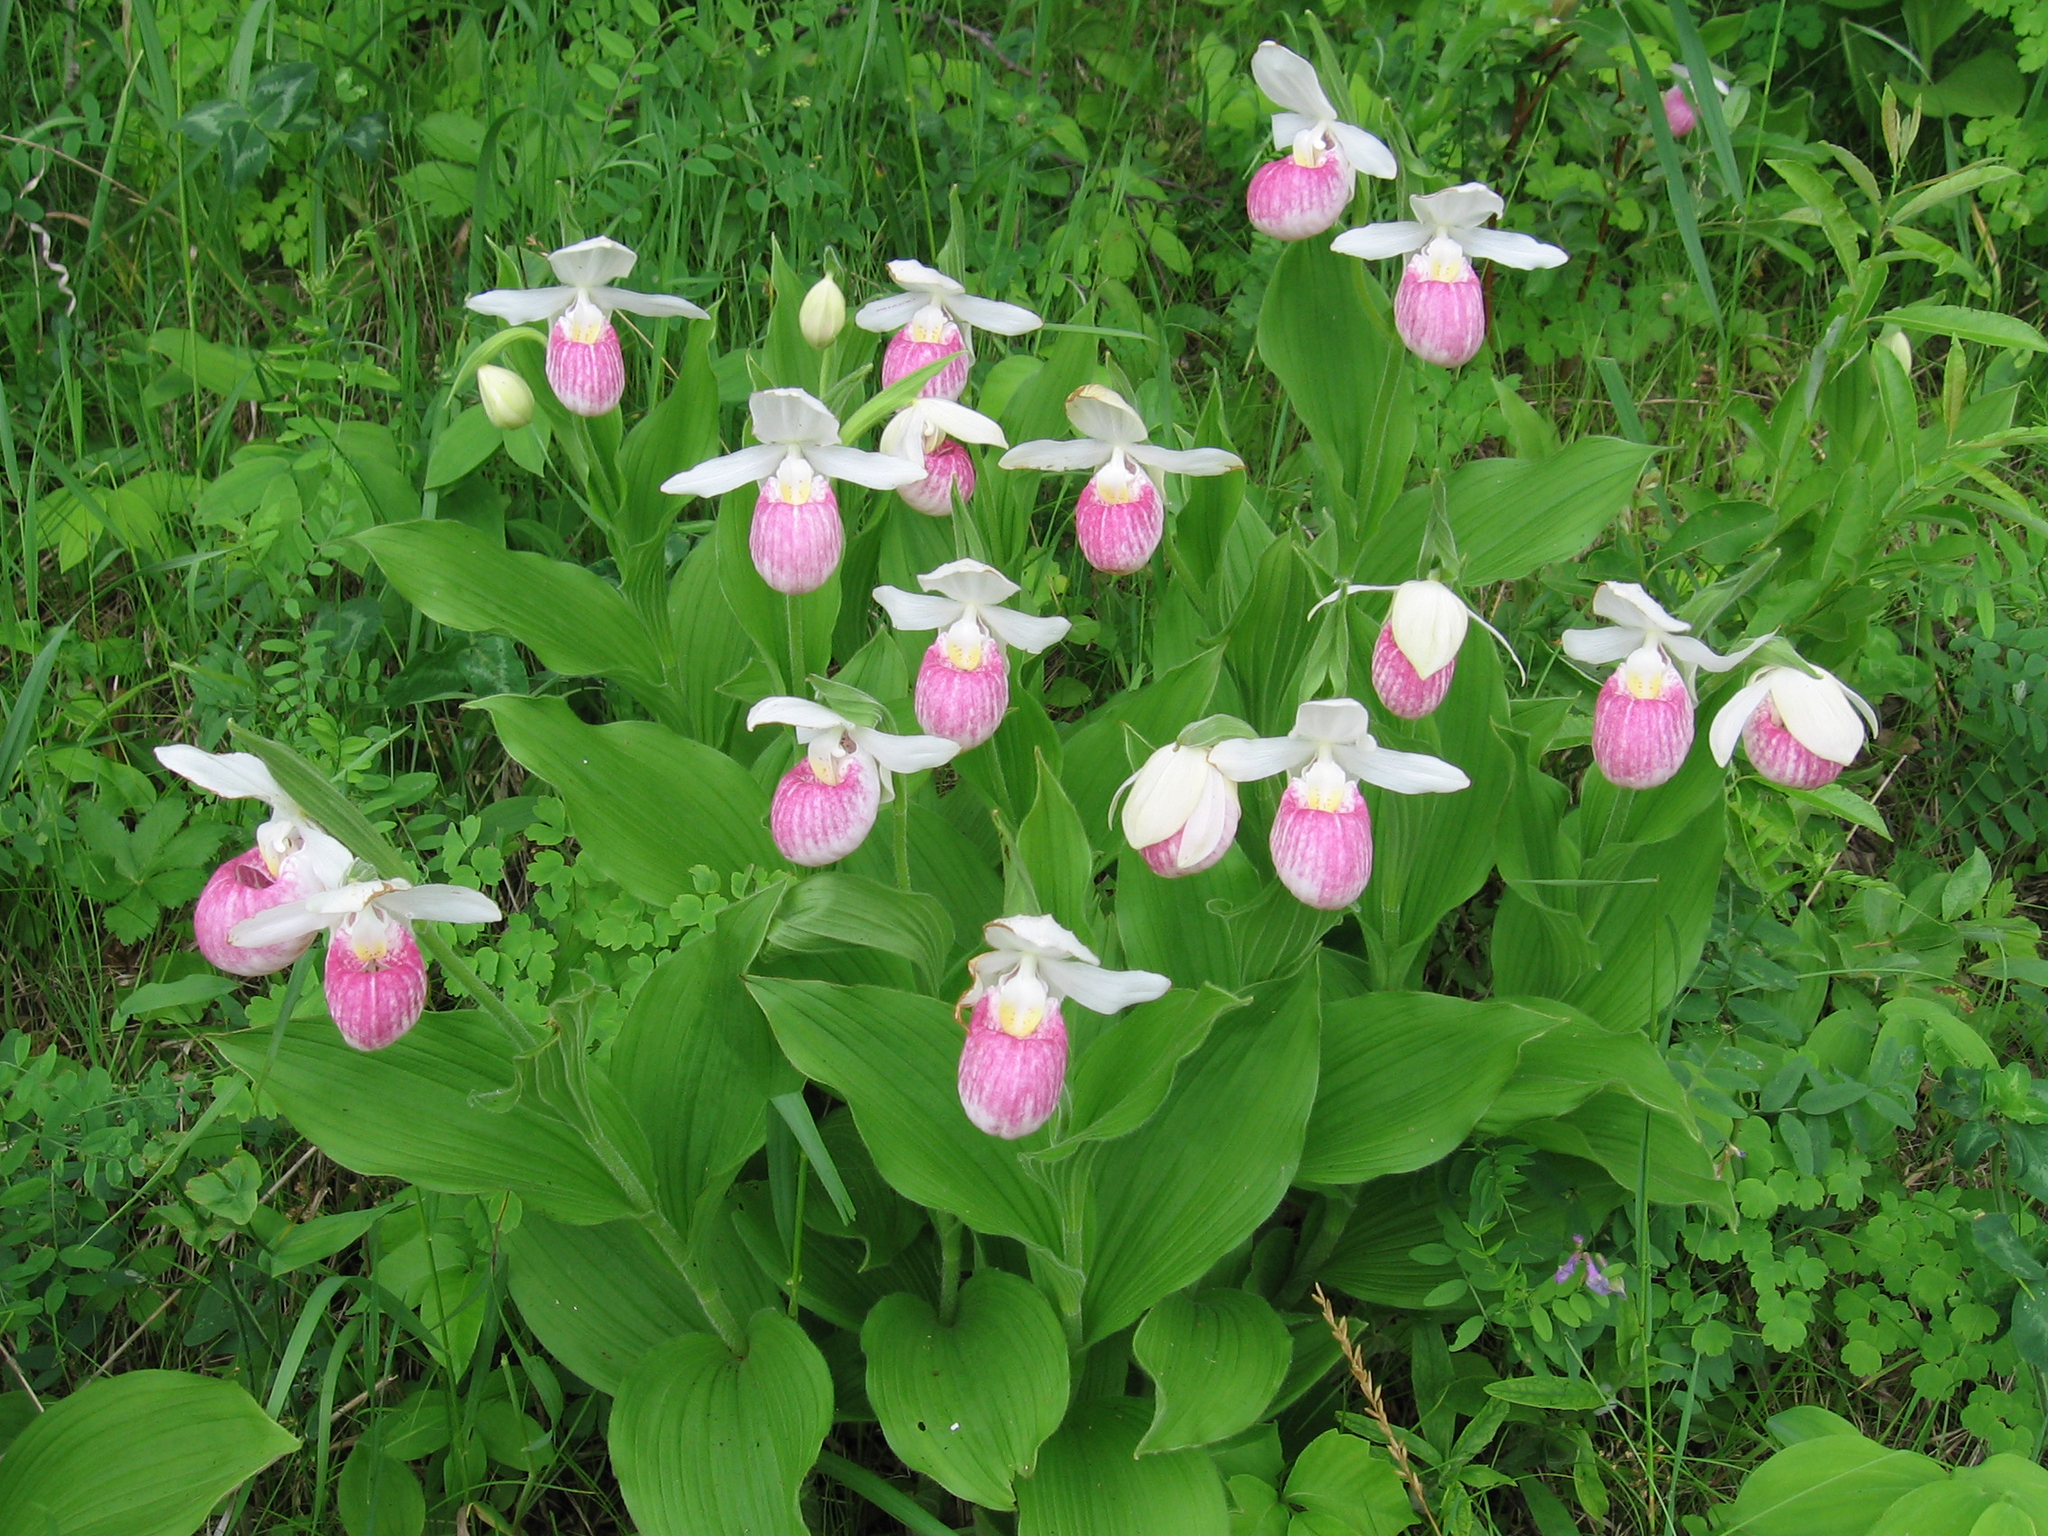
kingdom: Plantae
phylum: Tracheophyta
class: Liliopsida
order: Asparagales
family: Orchidaceae
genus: Cypripedium
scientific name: Cypripedium reginae
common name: Queen lady's-slipper
